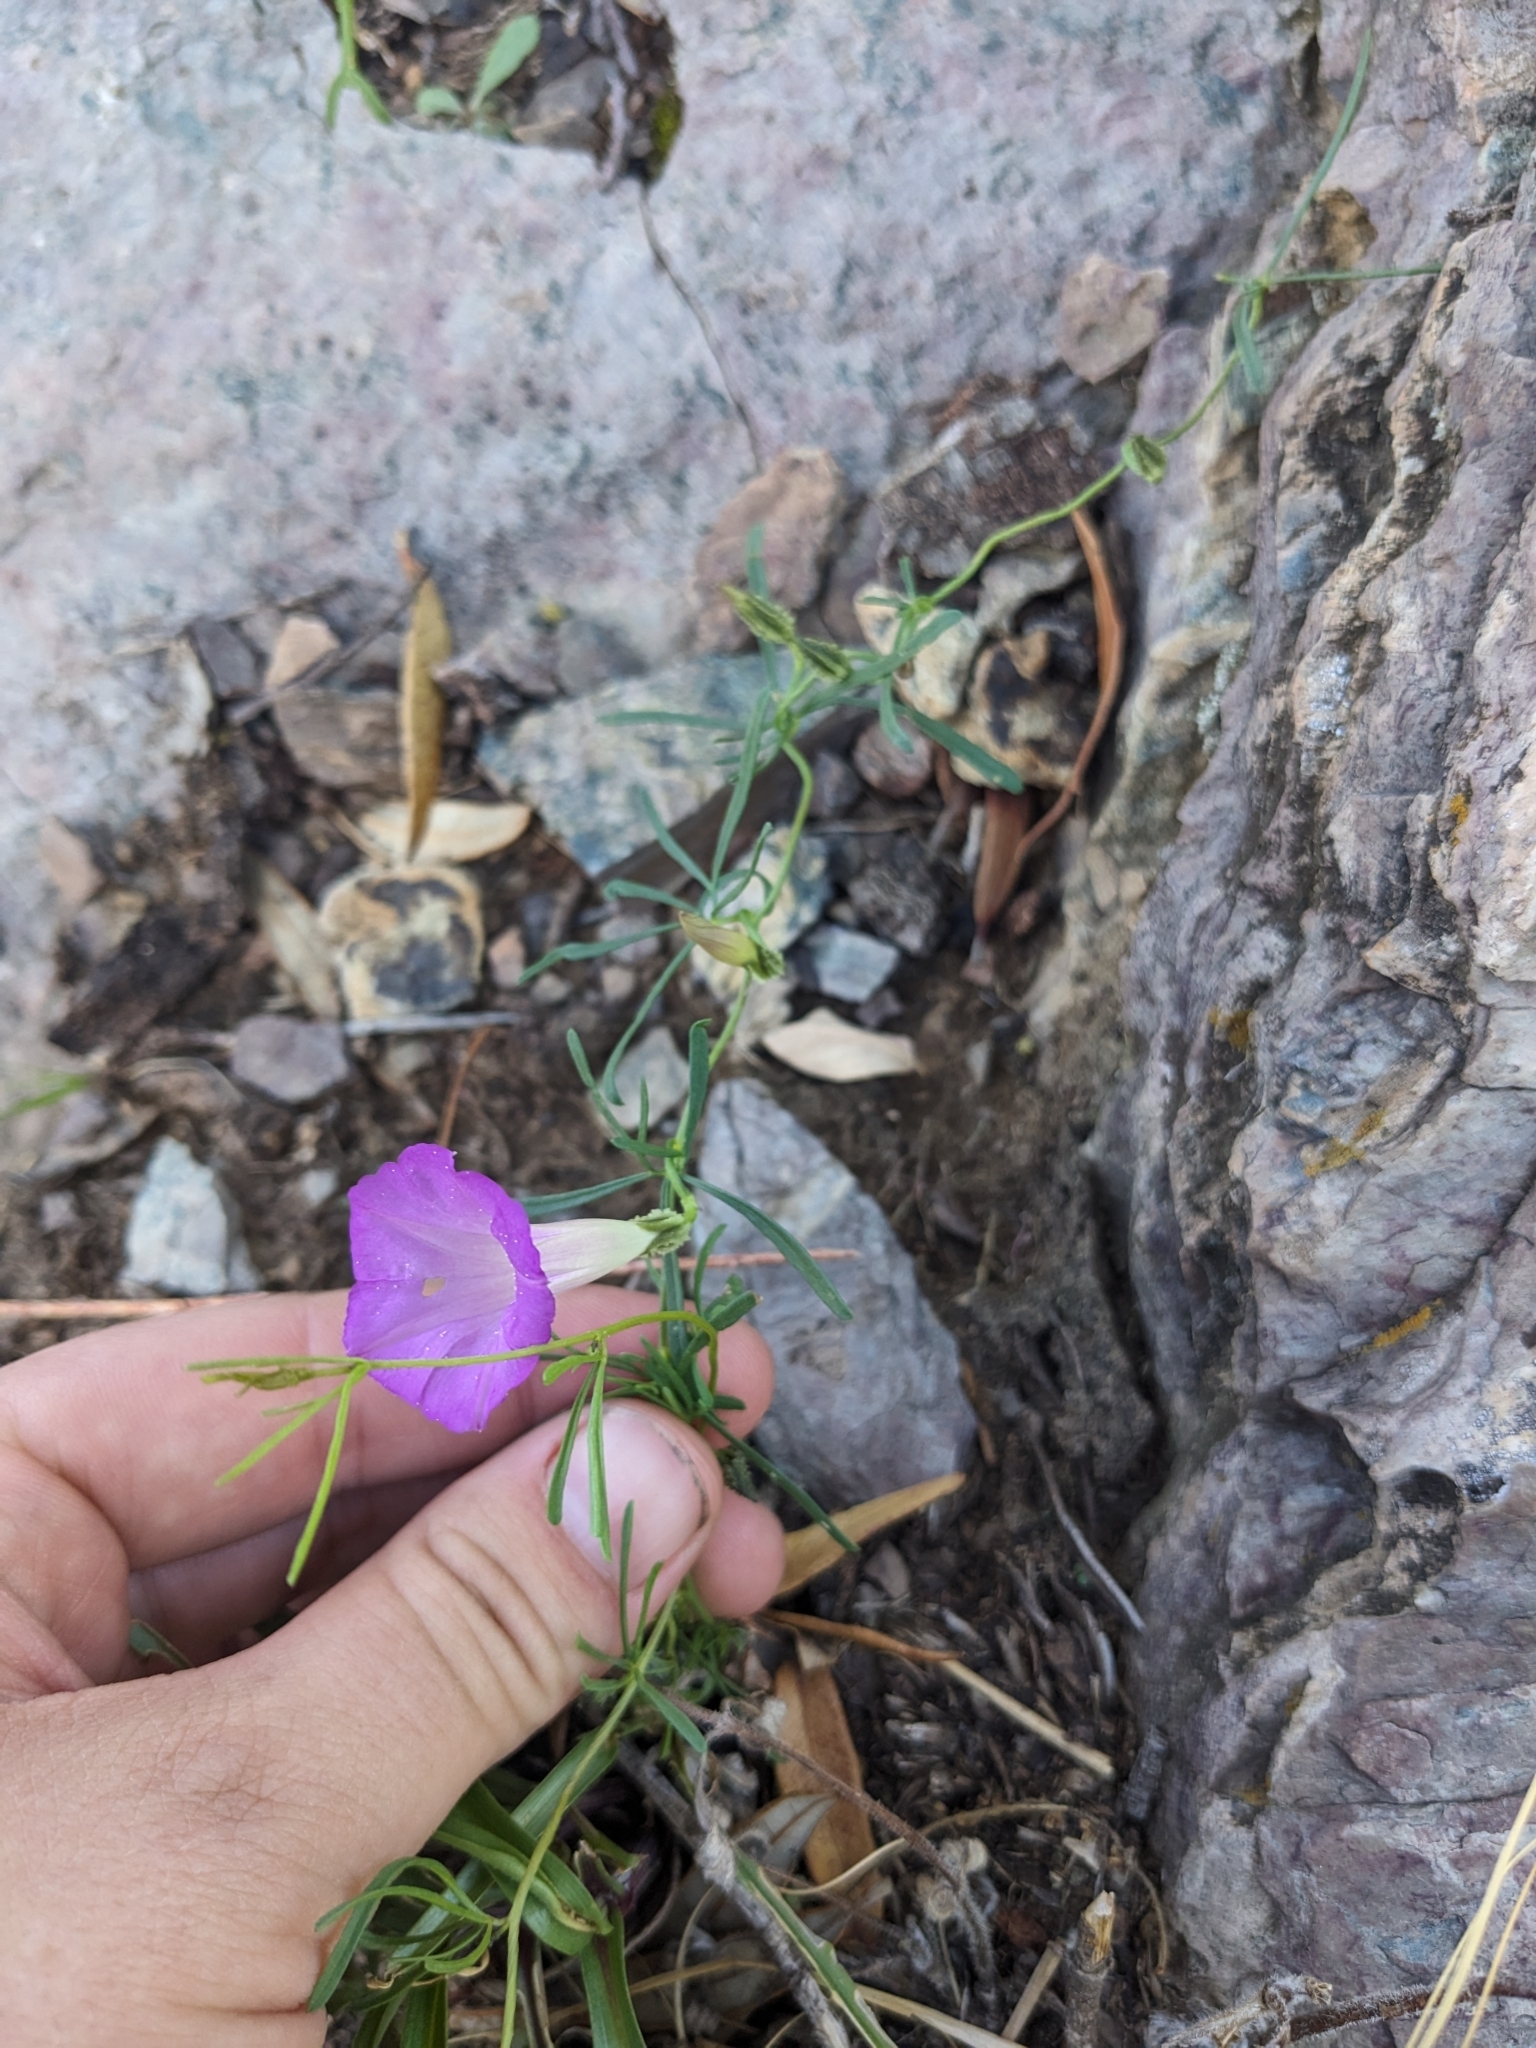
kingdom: Plantae
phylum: Tracheophyta
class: Magnoliopsida
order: Solanales
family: Convolvulaceae
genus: Ipomoea
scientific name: Ipomoea plummerae
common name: Plummer's morning-glory
